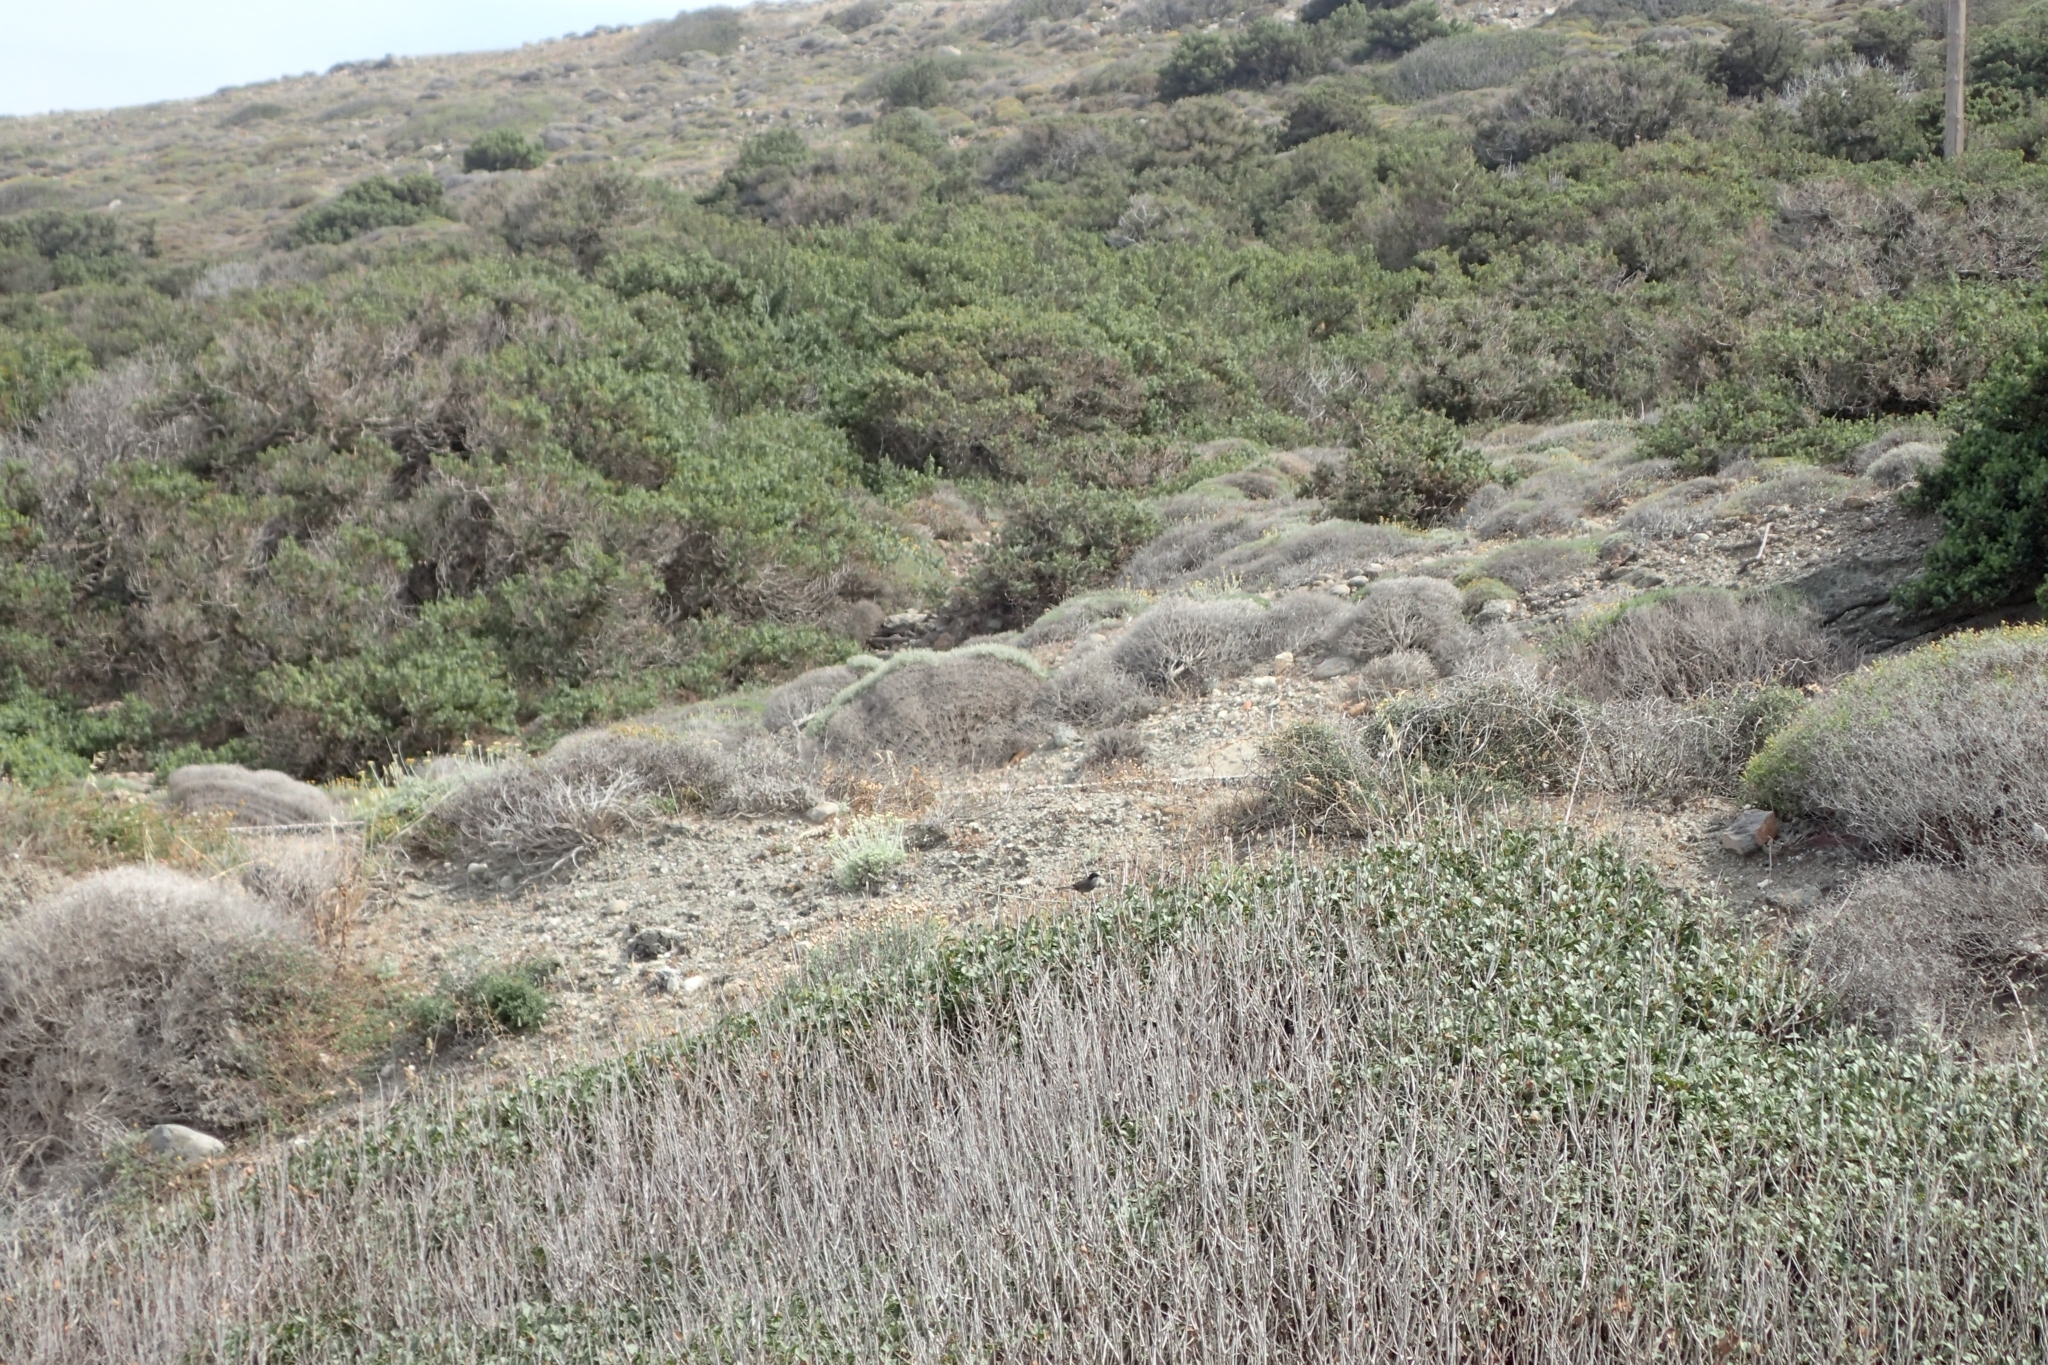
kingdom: Animalia
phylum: Chordata
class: Aves
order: Passeriformes
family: Sylviidae
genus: Curruca
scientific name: Curruca melanocephala
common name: Sardinian warbler
